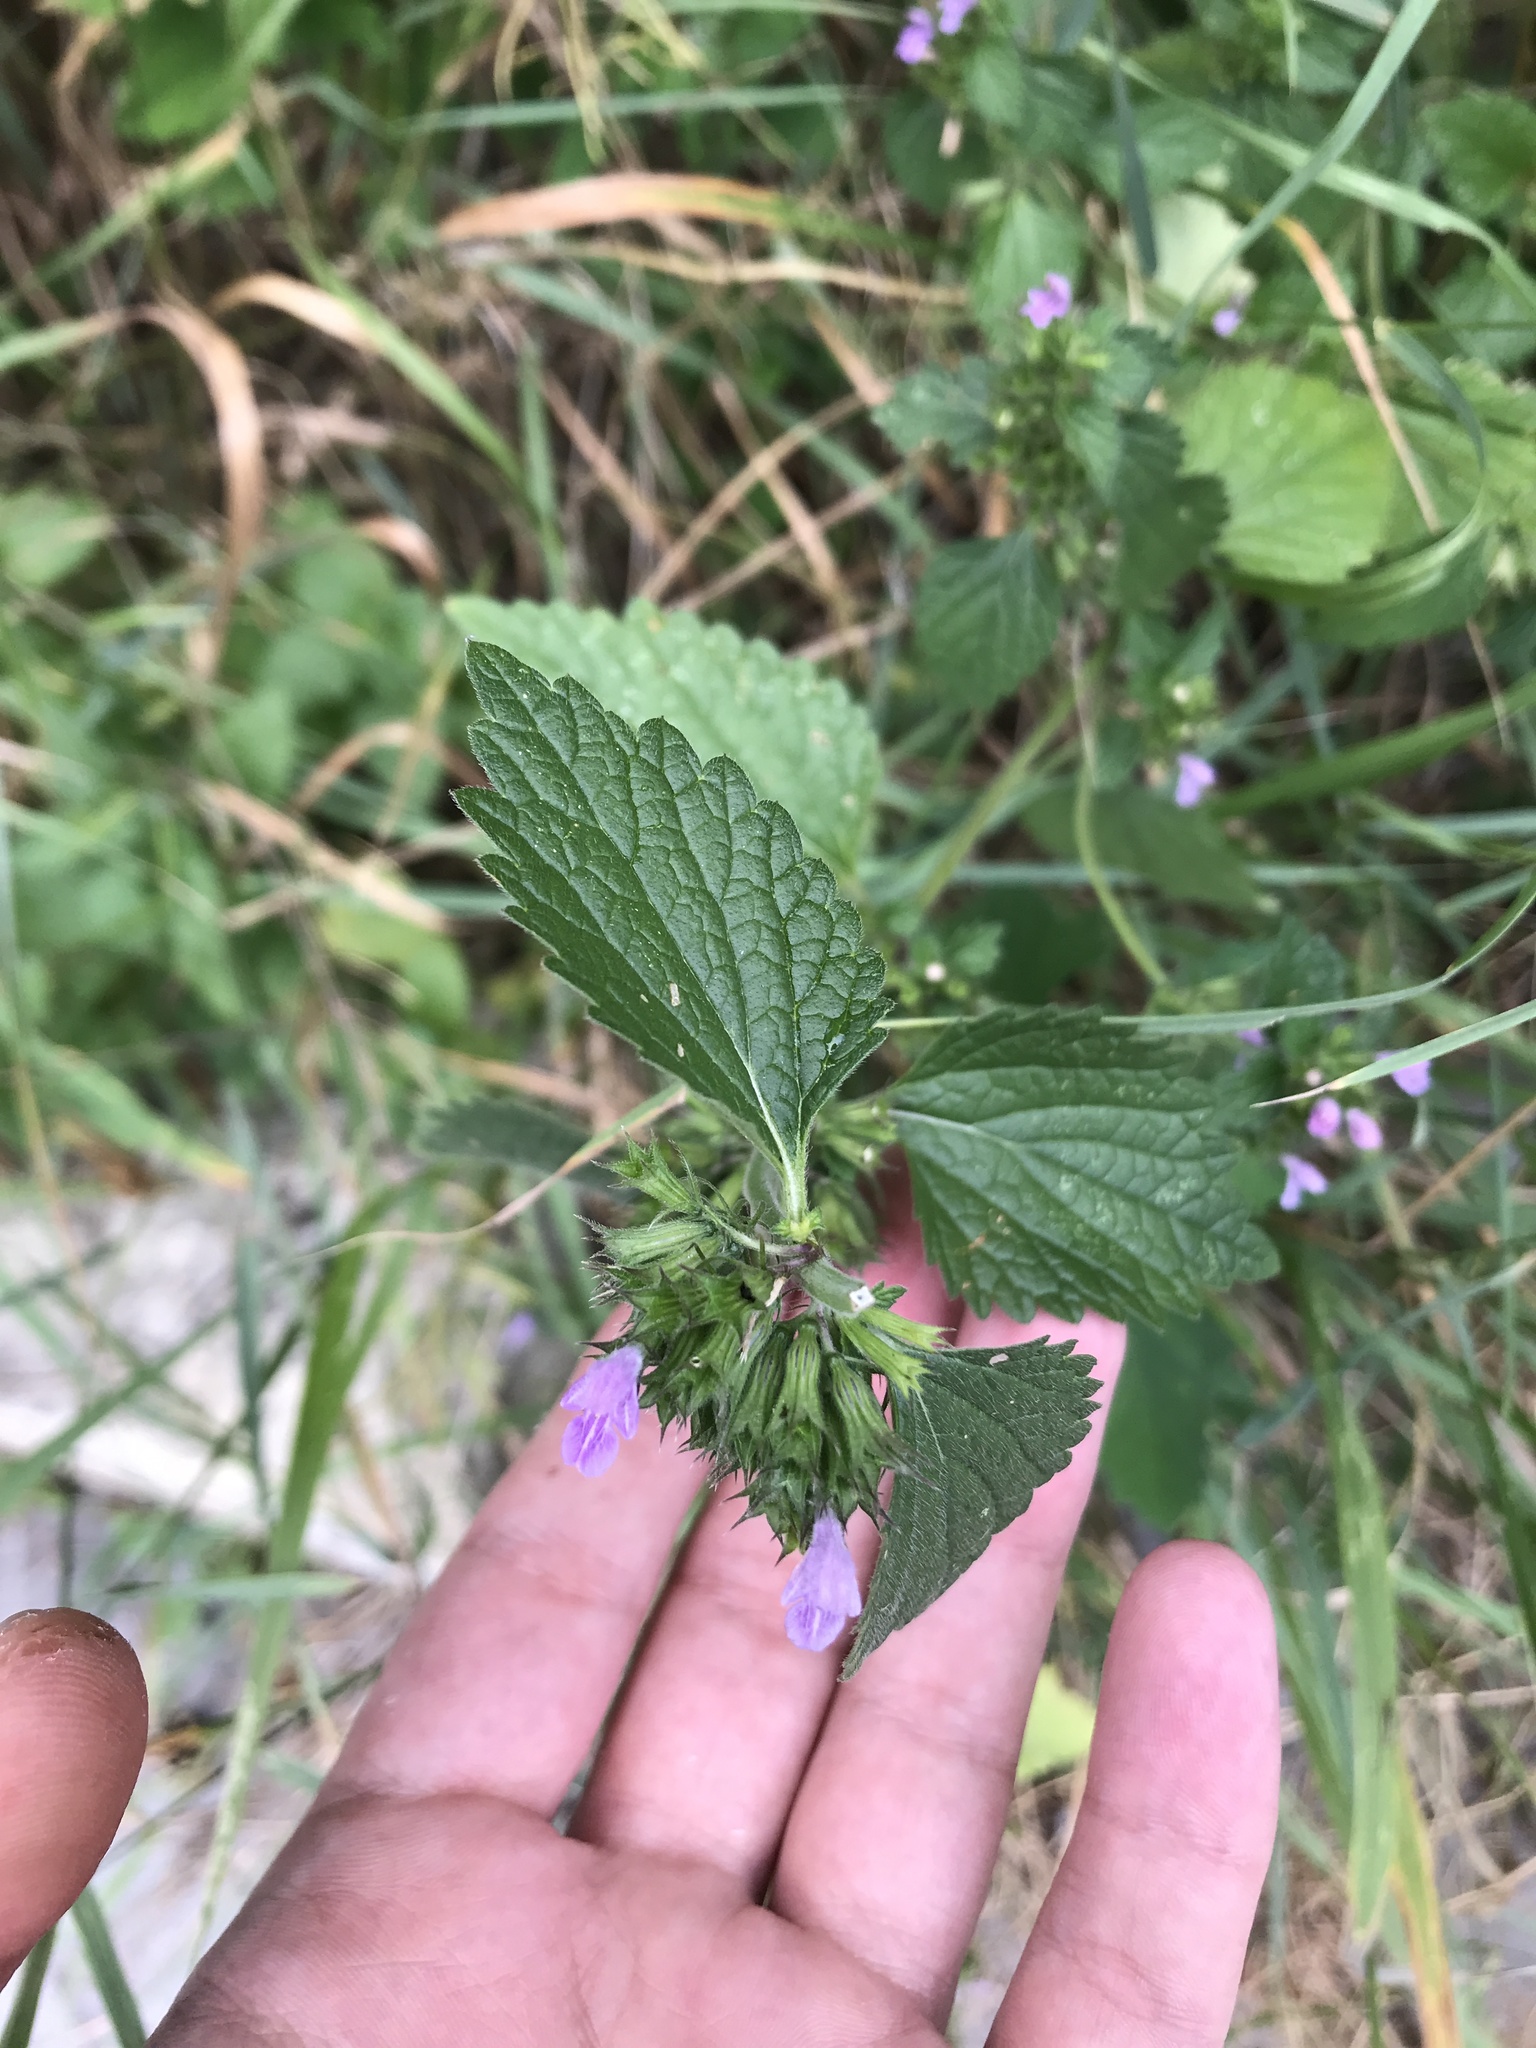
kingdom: Plantae
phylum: Tracheophyta
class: Magnoliopsida
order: Lamiales
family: Lamiaceae
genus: Ballota
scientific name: Ballota nigra
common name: Black horehound
